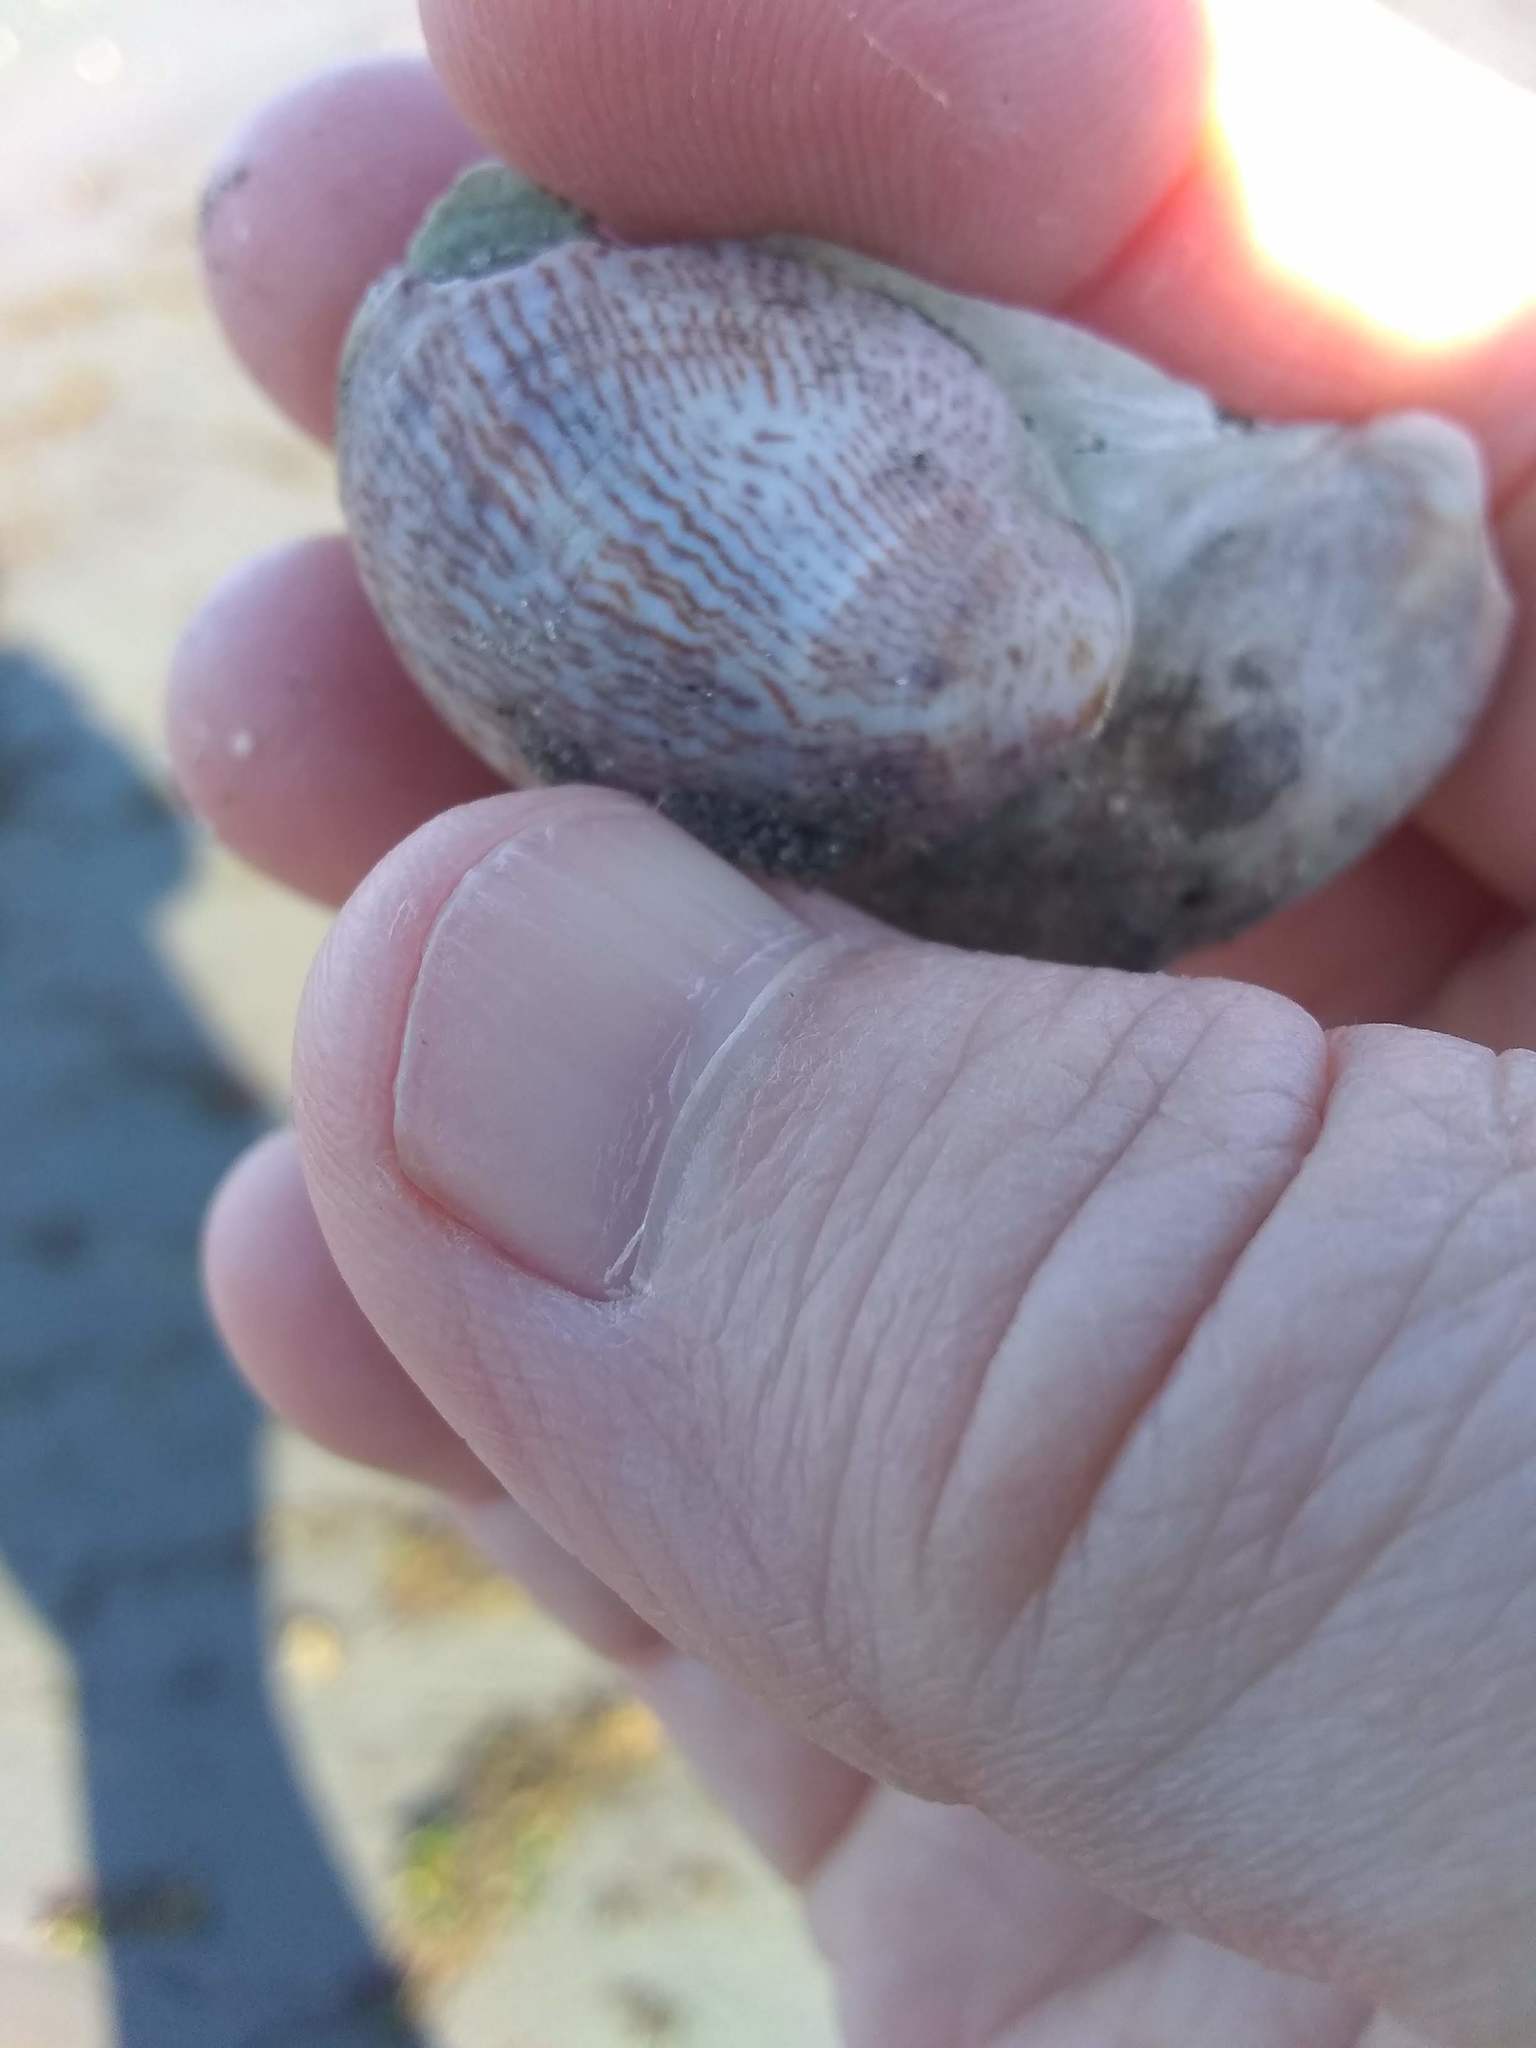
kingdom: Animalia
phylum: Mollusca
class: Gastropoda
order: Littorinimorpha
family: Calyptraeidae
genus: Crepidula
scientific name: Crepidula fornicata
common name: Slipper limpet
